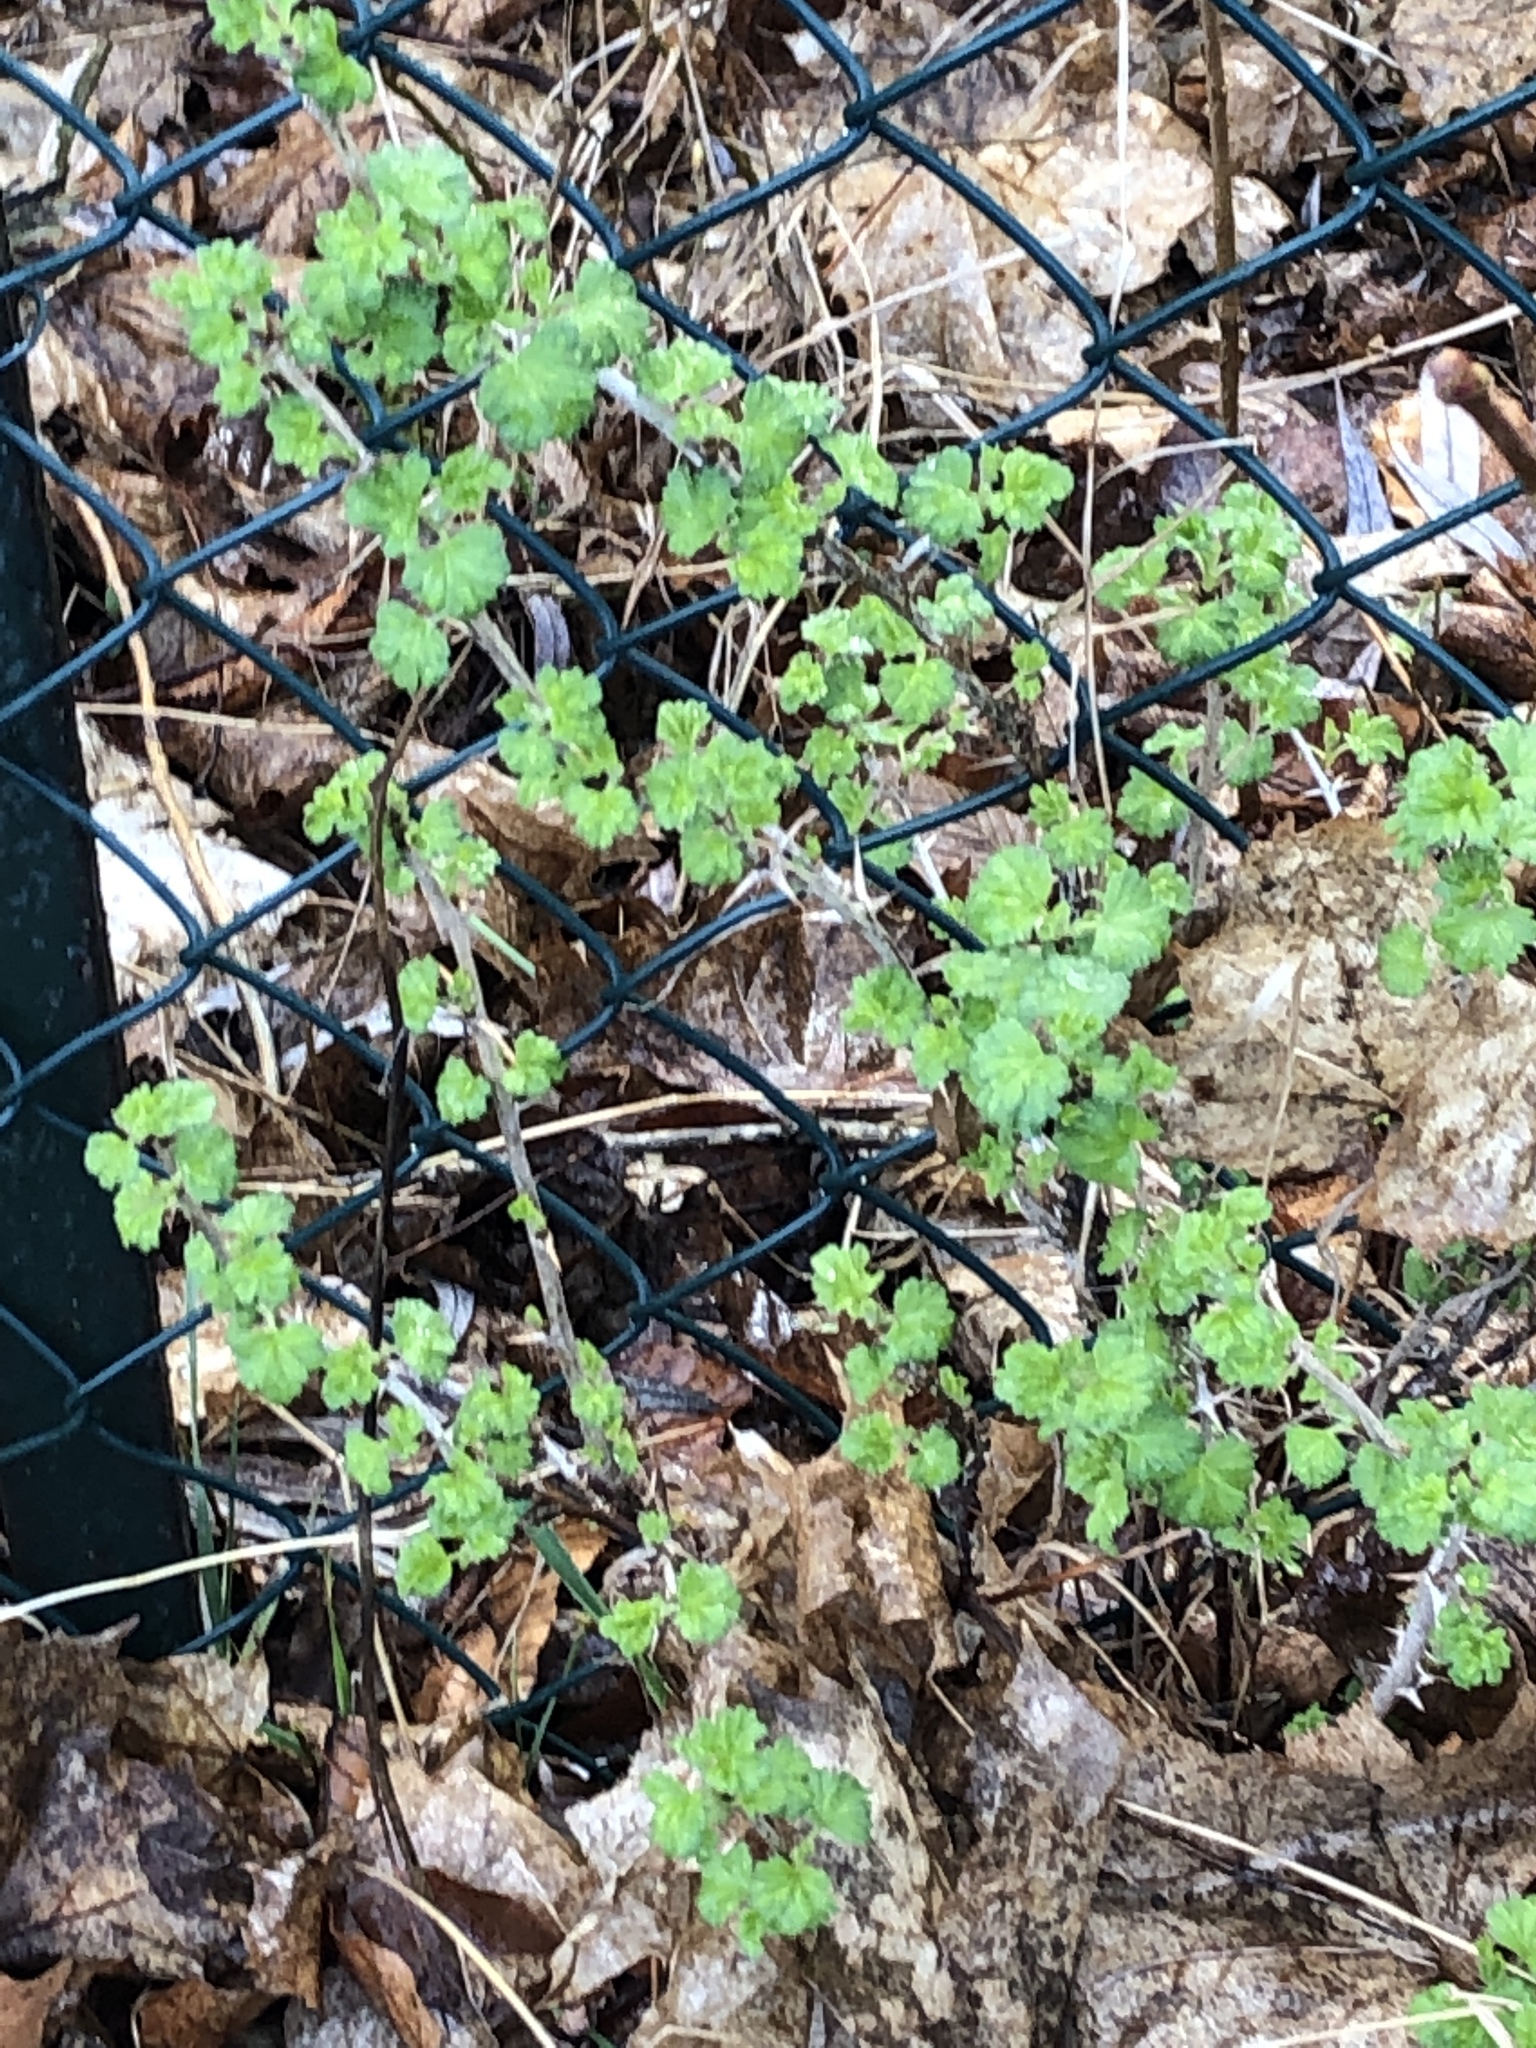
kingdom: Plantae
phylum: Tracheophyta
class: Magnoliopsida
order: Saxifragales
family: Grossulariaceae
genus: Ribes
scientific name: Ribes uva-crispa
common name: Gooseberry
